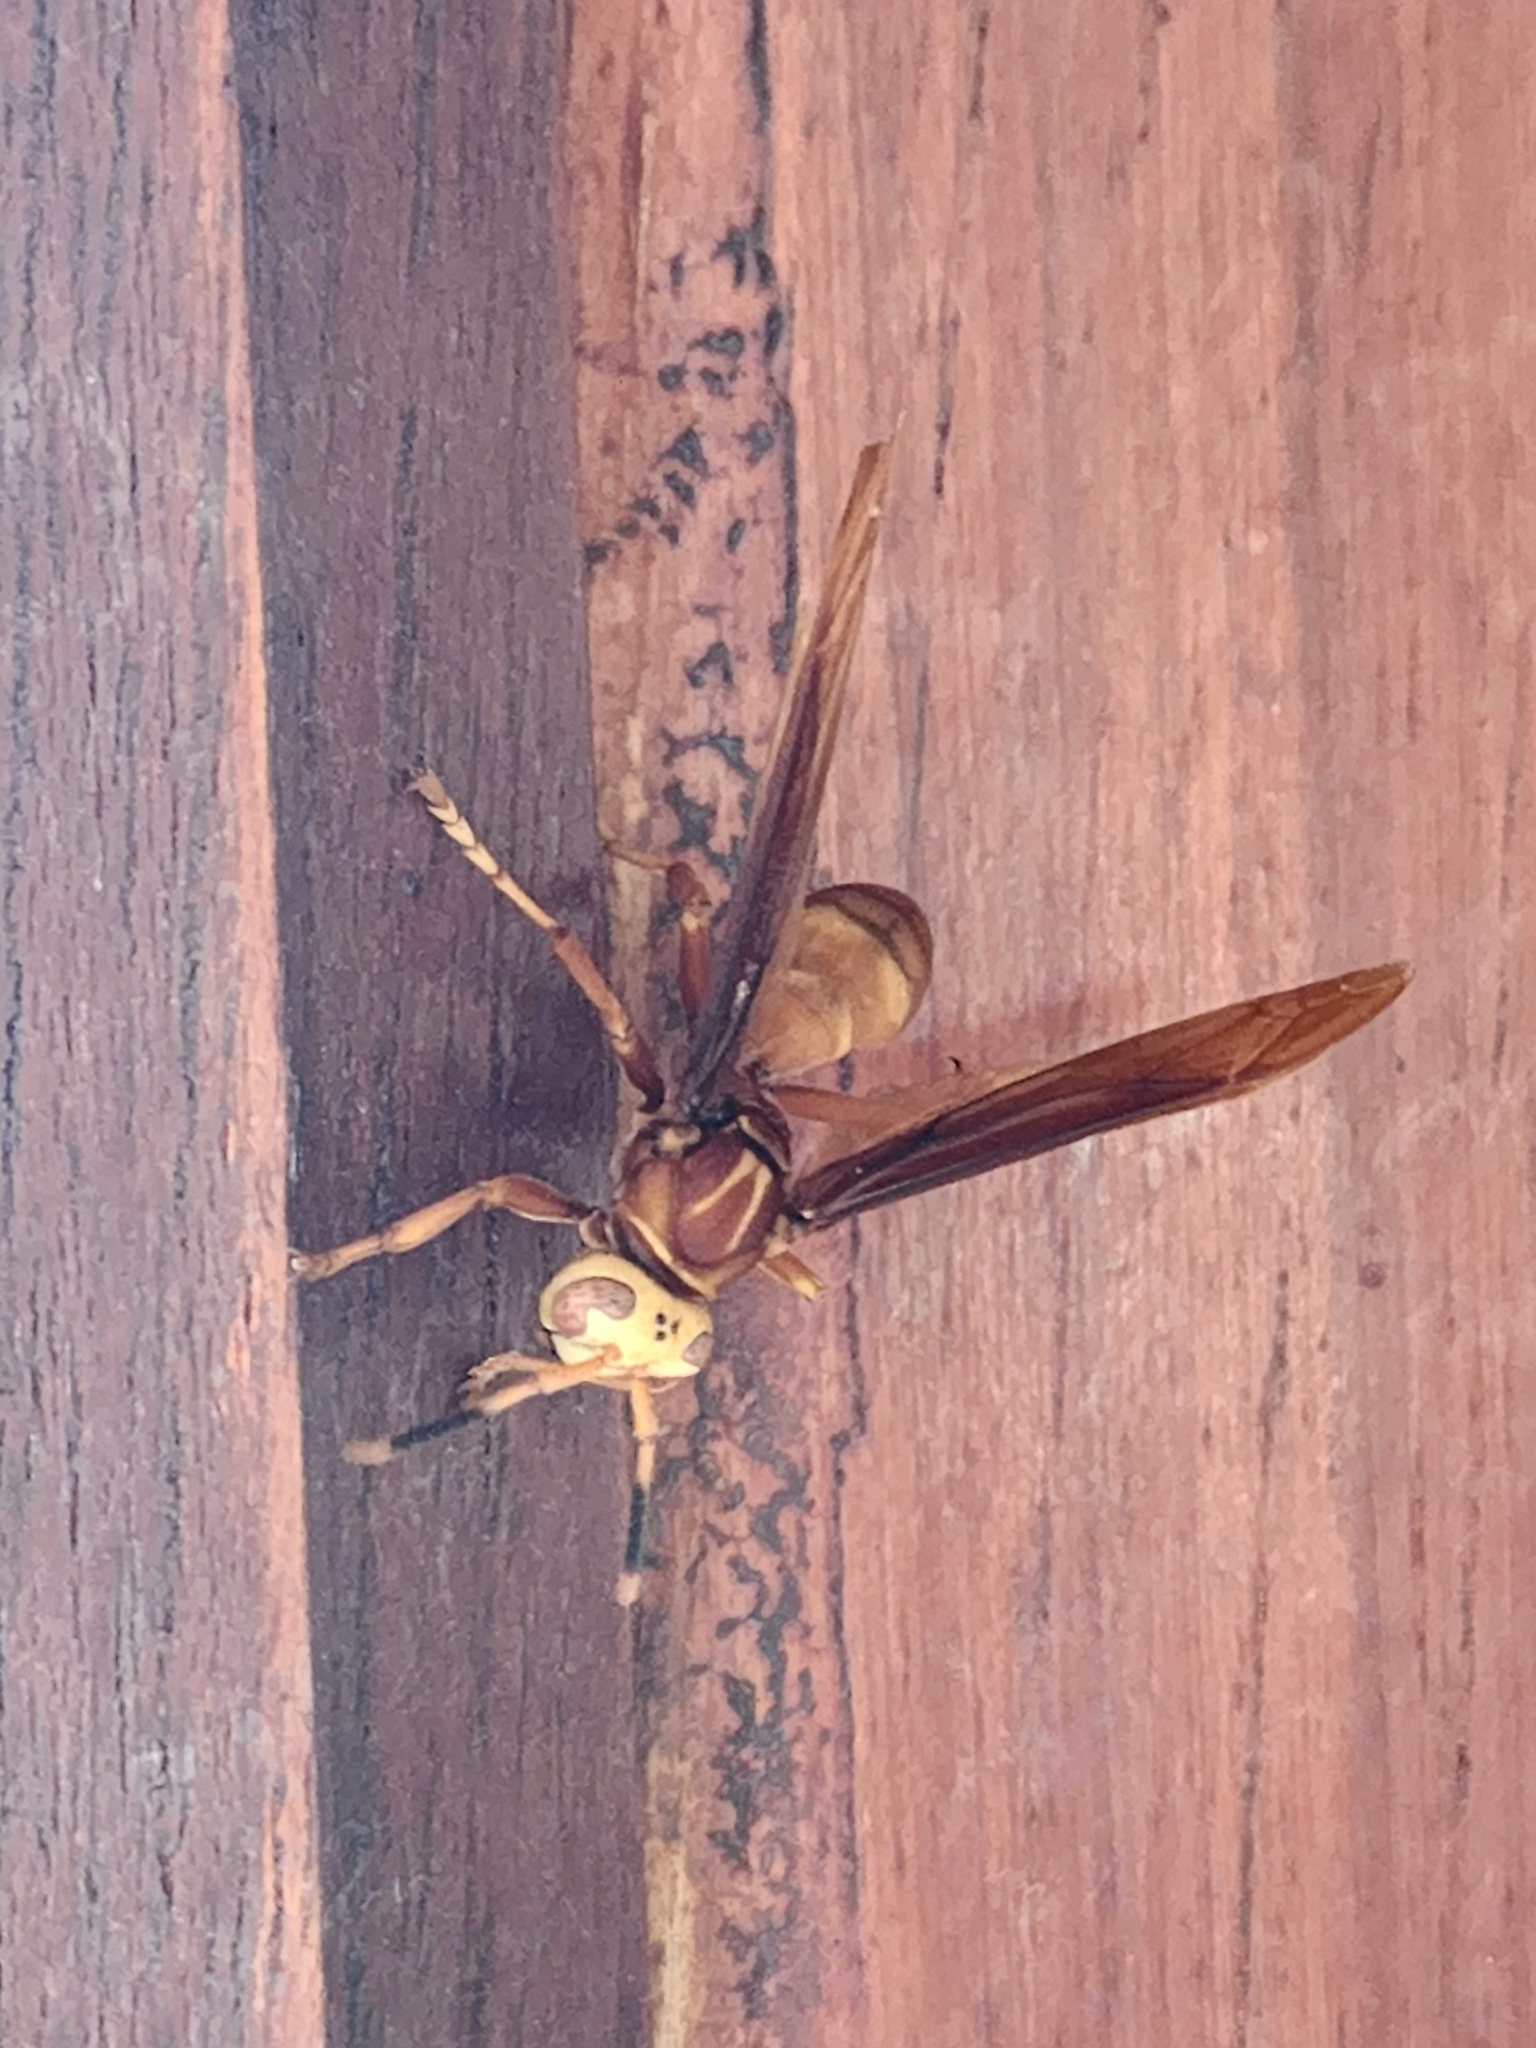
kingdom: Animalia
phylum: Arthropoda
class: Insecta
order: Hymenoptera
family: Eumenidae
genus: Polistes
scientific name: Polistes cavapyta
